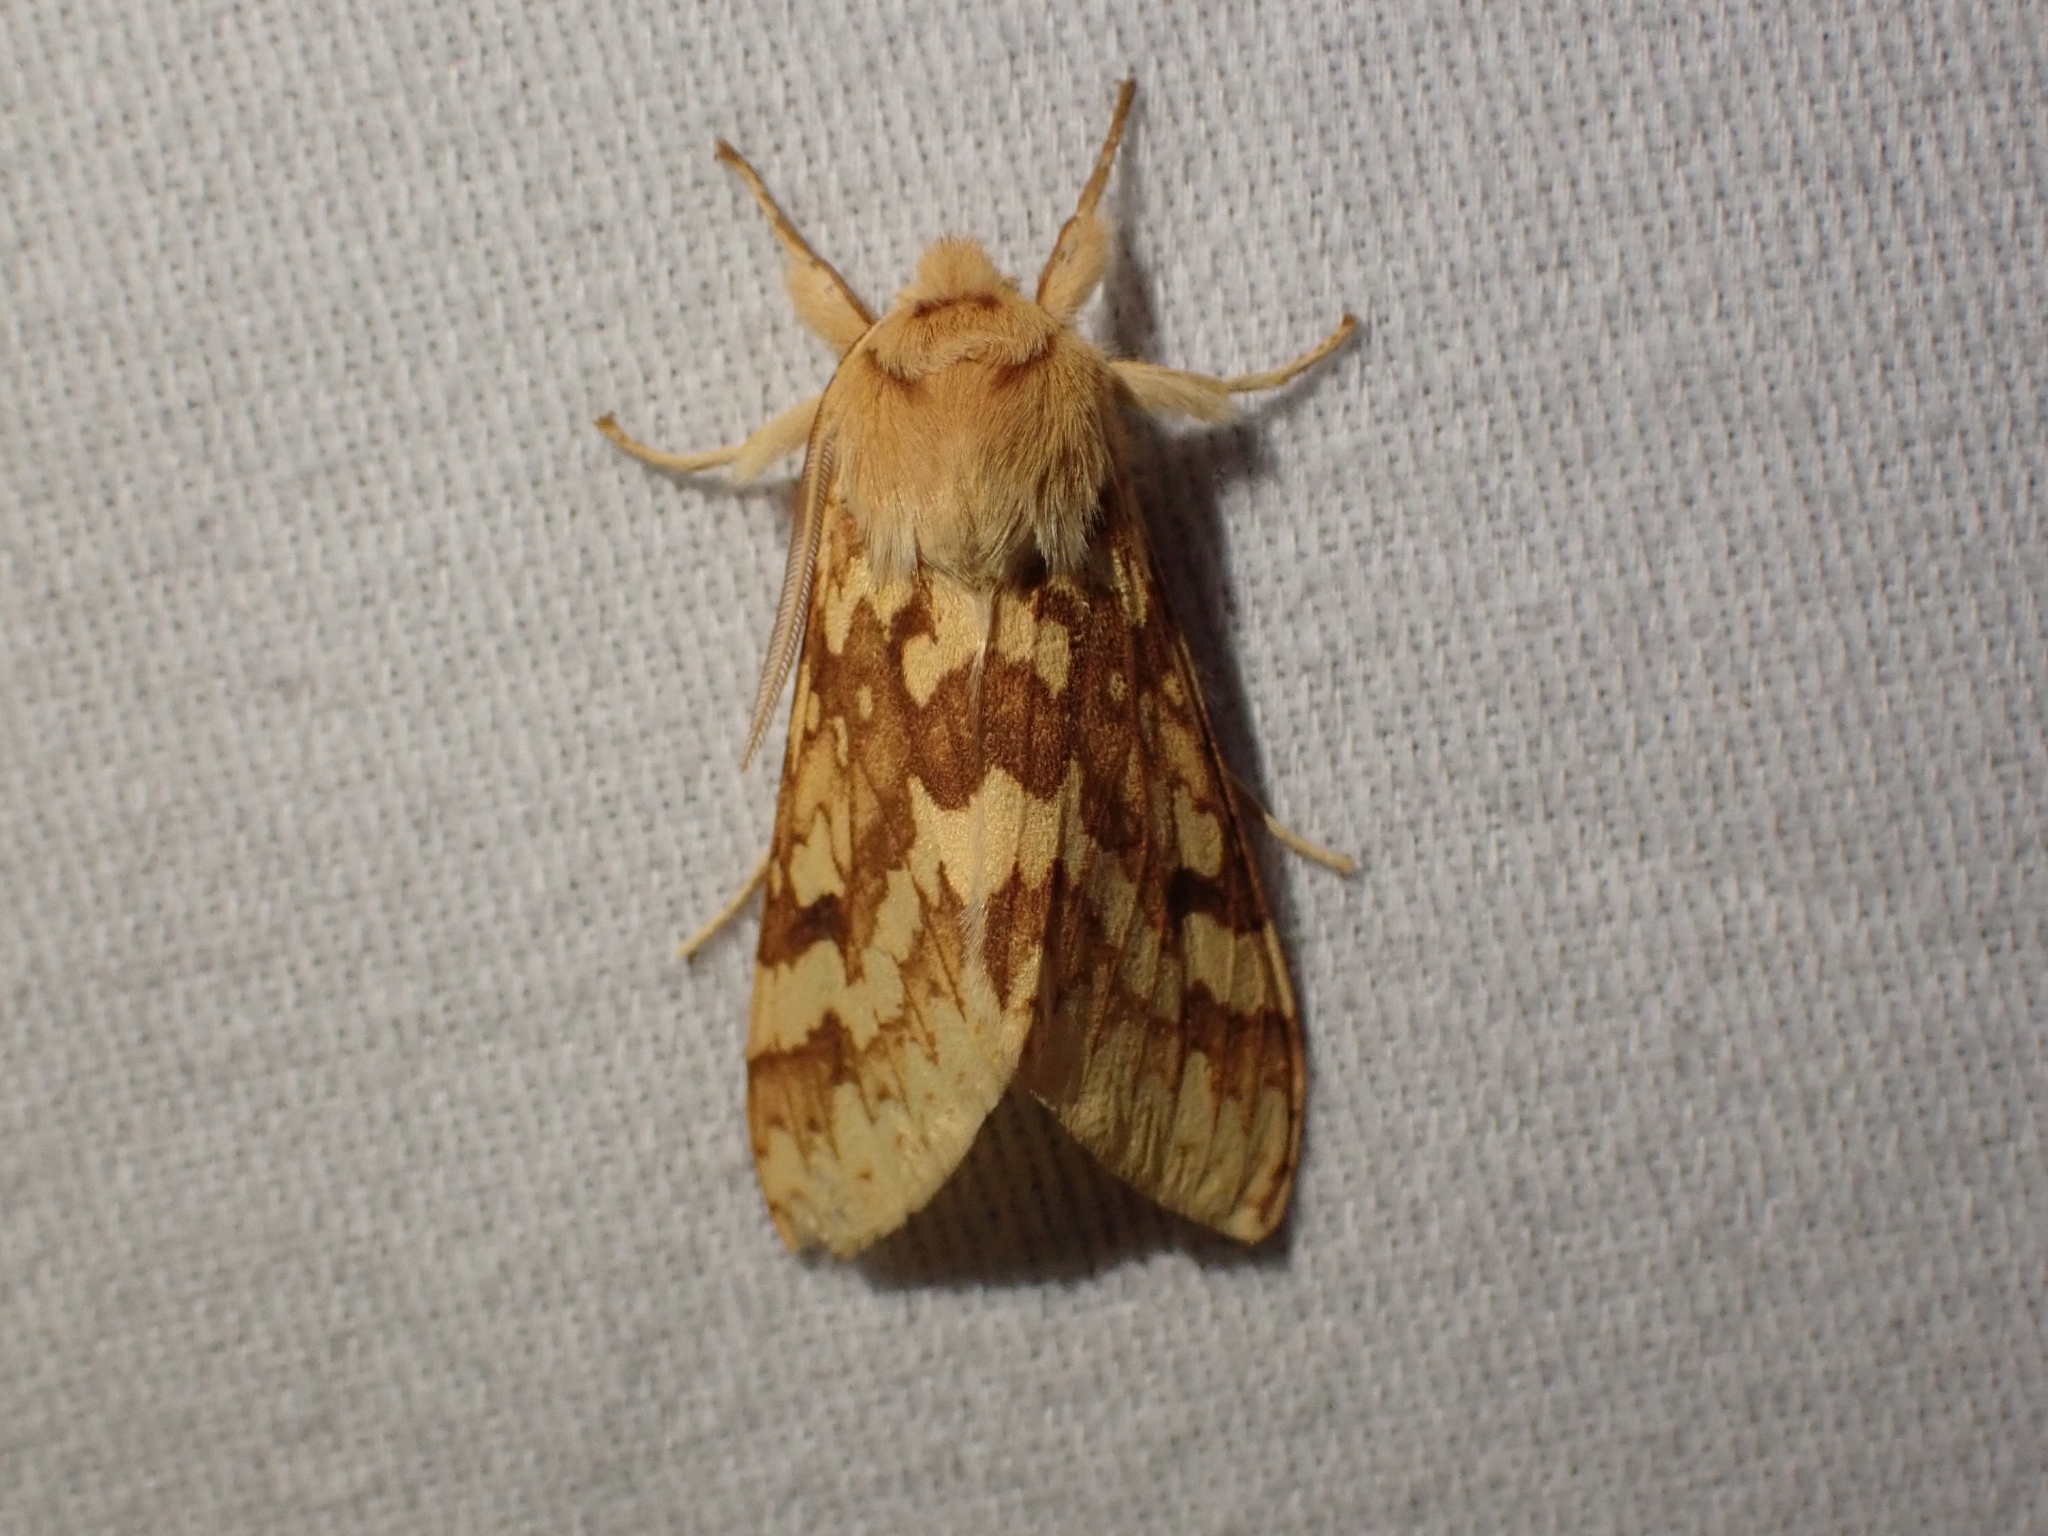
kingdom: Animalia
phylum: Arthropoda
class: Insecta
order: Lepidoptera
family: Erebidae
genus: Lophocampa
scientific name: Lophocampa maculata
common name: Spotted tussock moth
